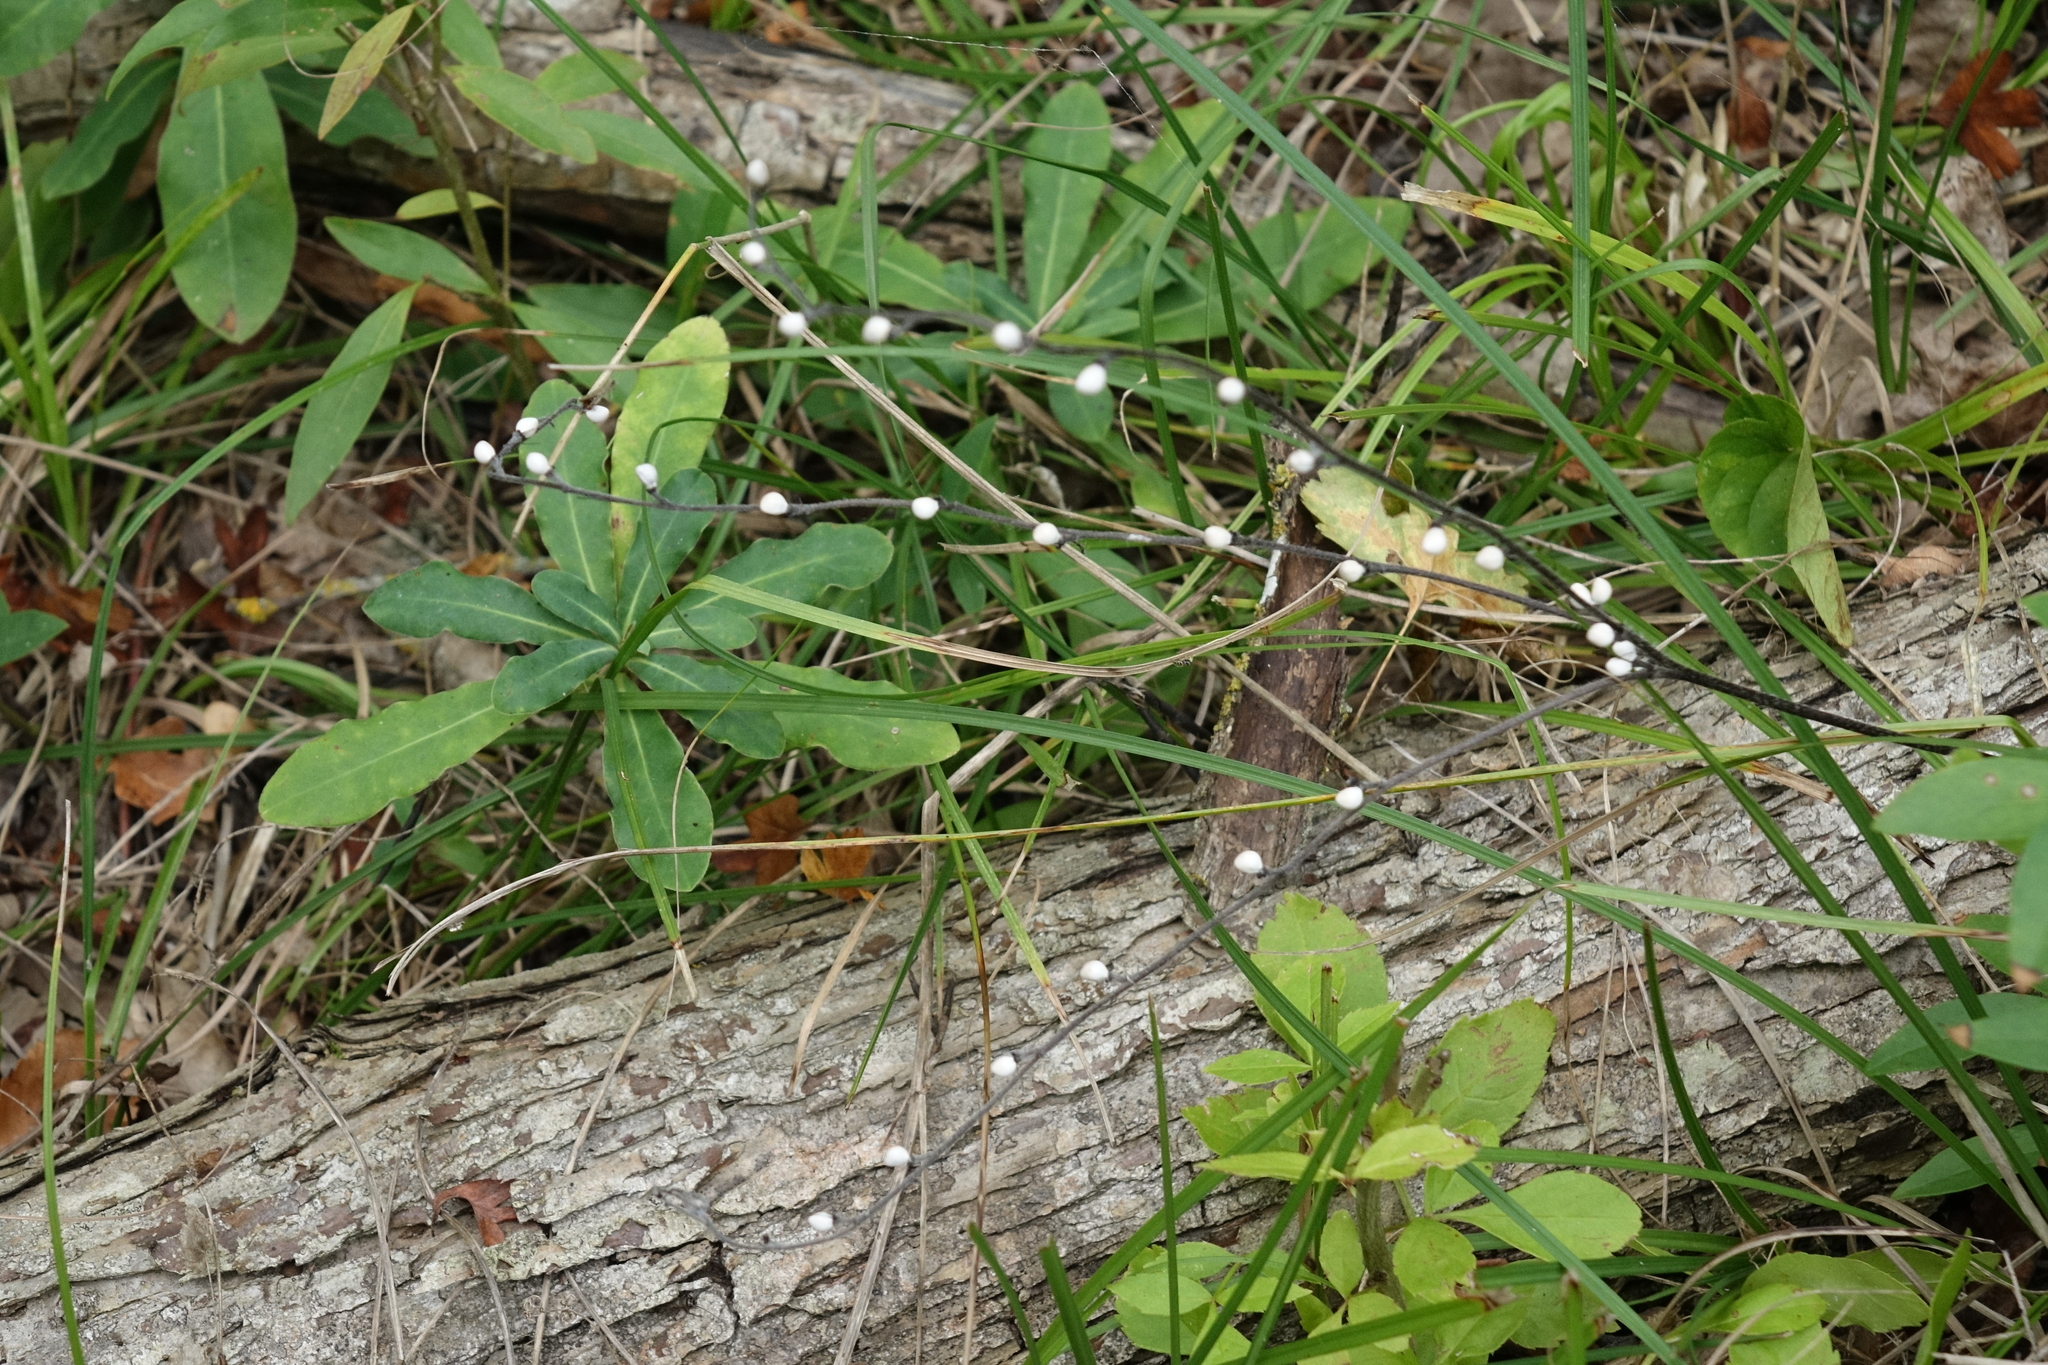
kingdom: Plantae
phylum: Tracheophyta
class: Magnoliopsida
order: Boraginales
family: Boraginaceae
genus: Lithospermum
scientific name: Lithospermum officinale
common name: Common gromwell
